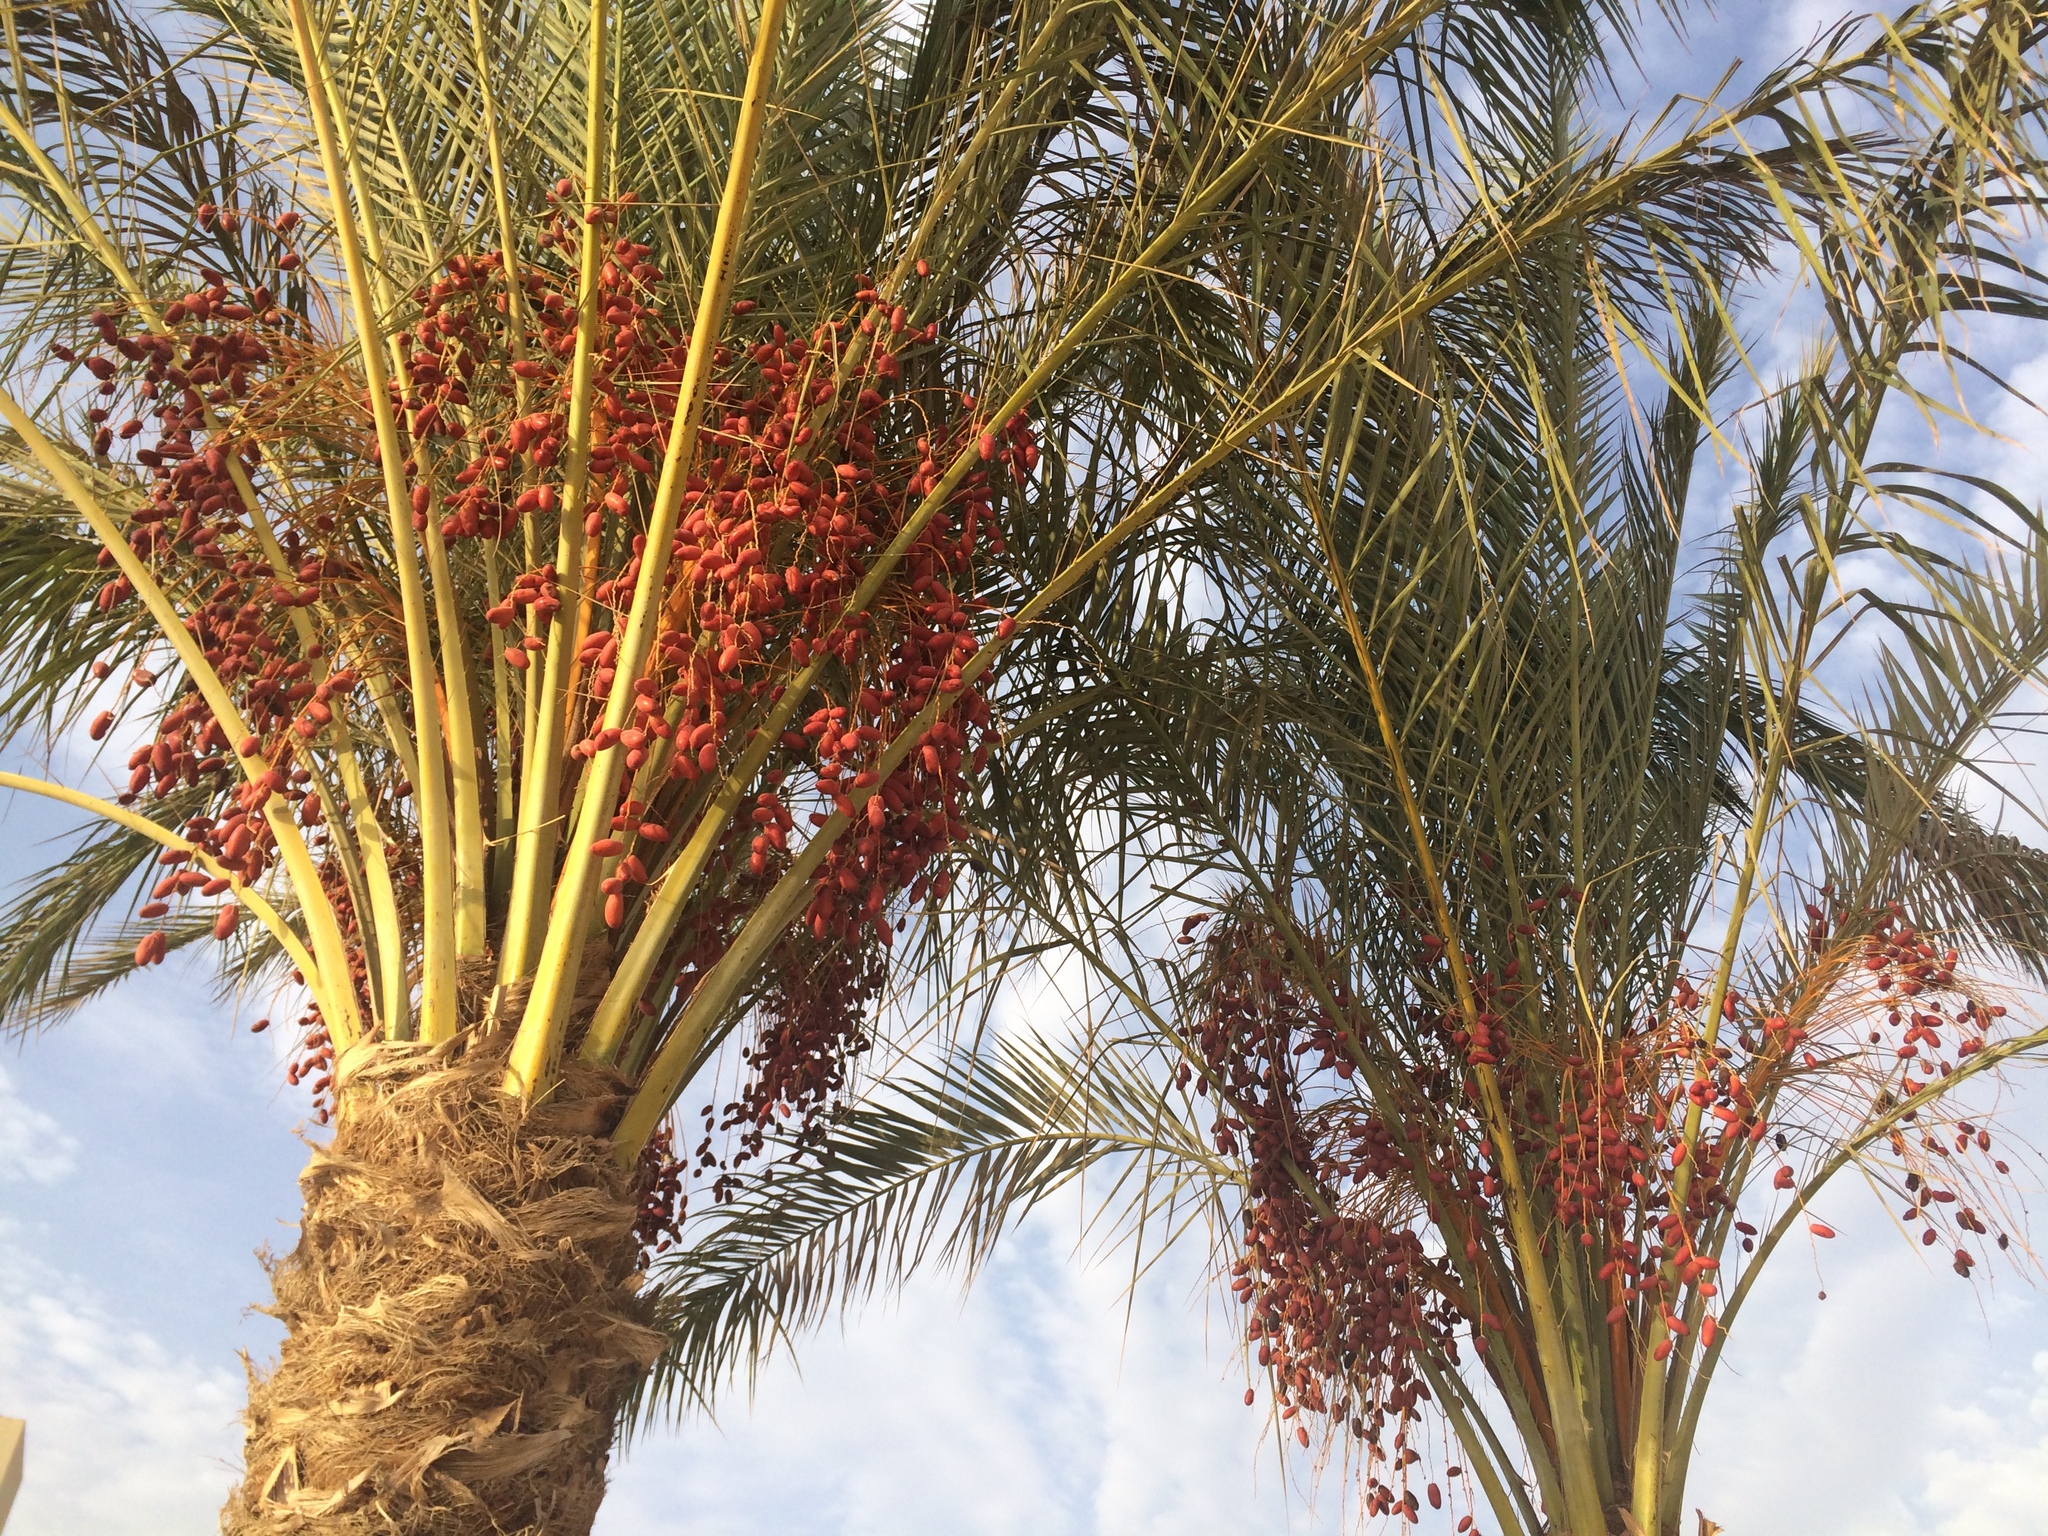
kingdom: Plantae
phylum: Tracheophyta
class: Liliopsida
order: Arecales
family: Arecaceae
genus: Phoenix
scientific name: Phoenix dactylifera
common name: Date palm
